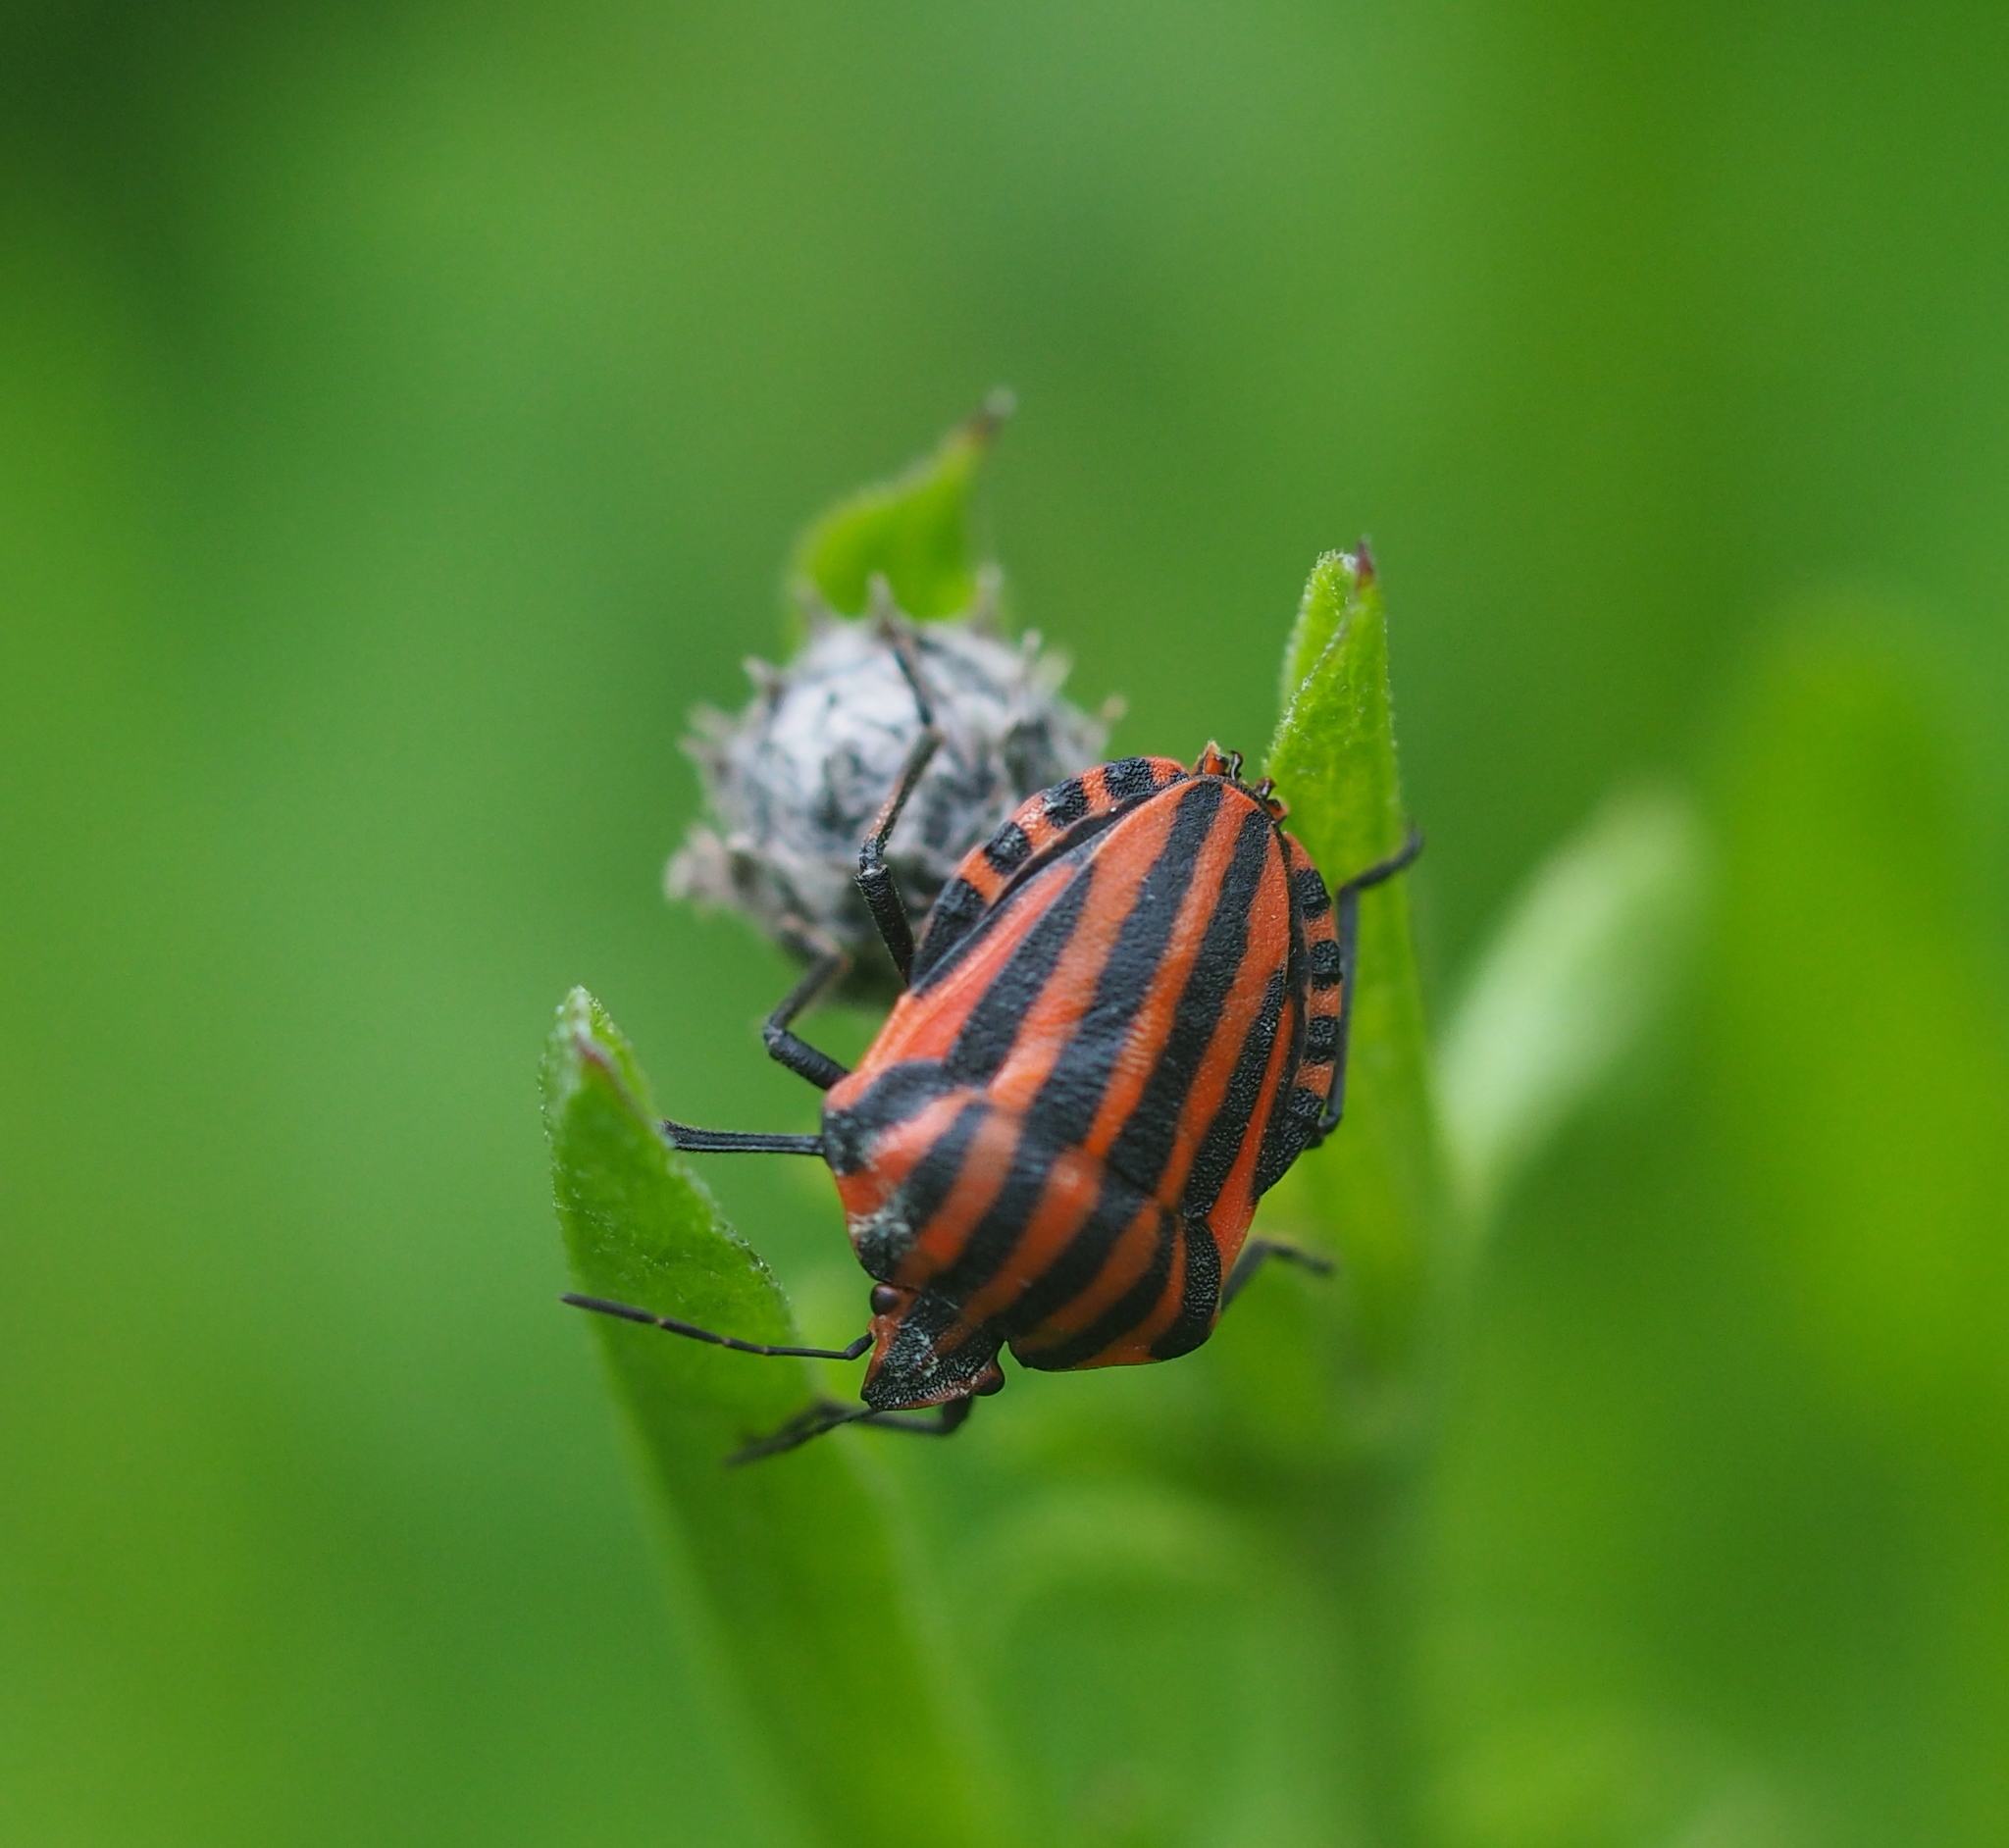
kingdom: Animalia
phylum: Arthropoda
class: Insecta
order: Hemiptera
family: Pentatomidae
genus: Graphosoma
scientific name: Graphosoma italicum
